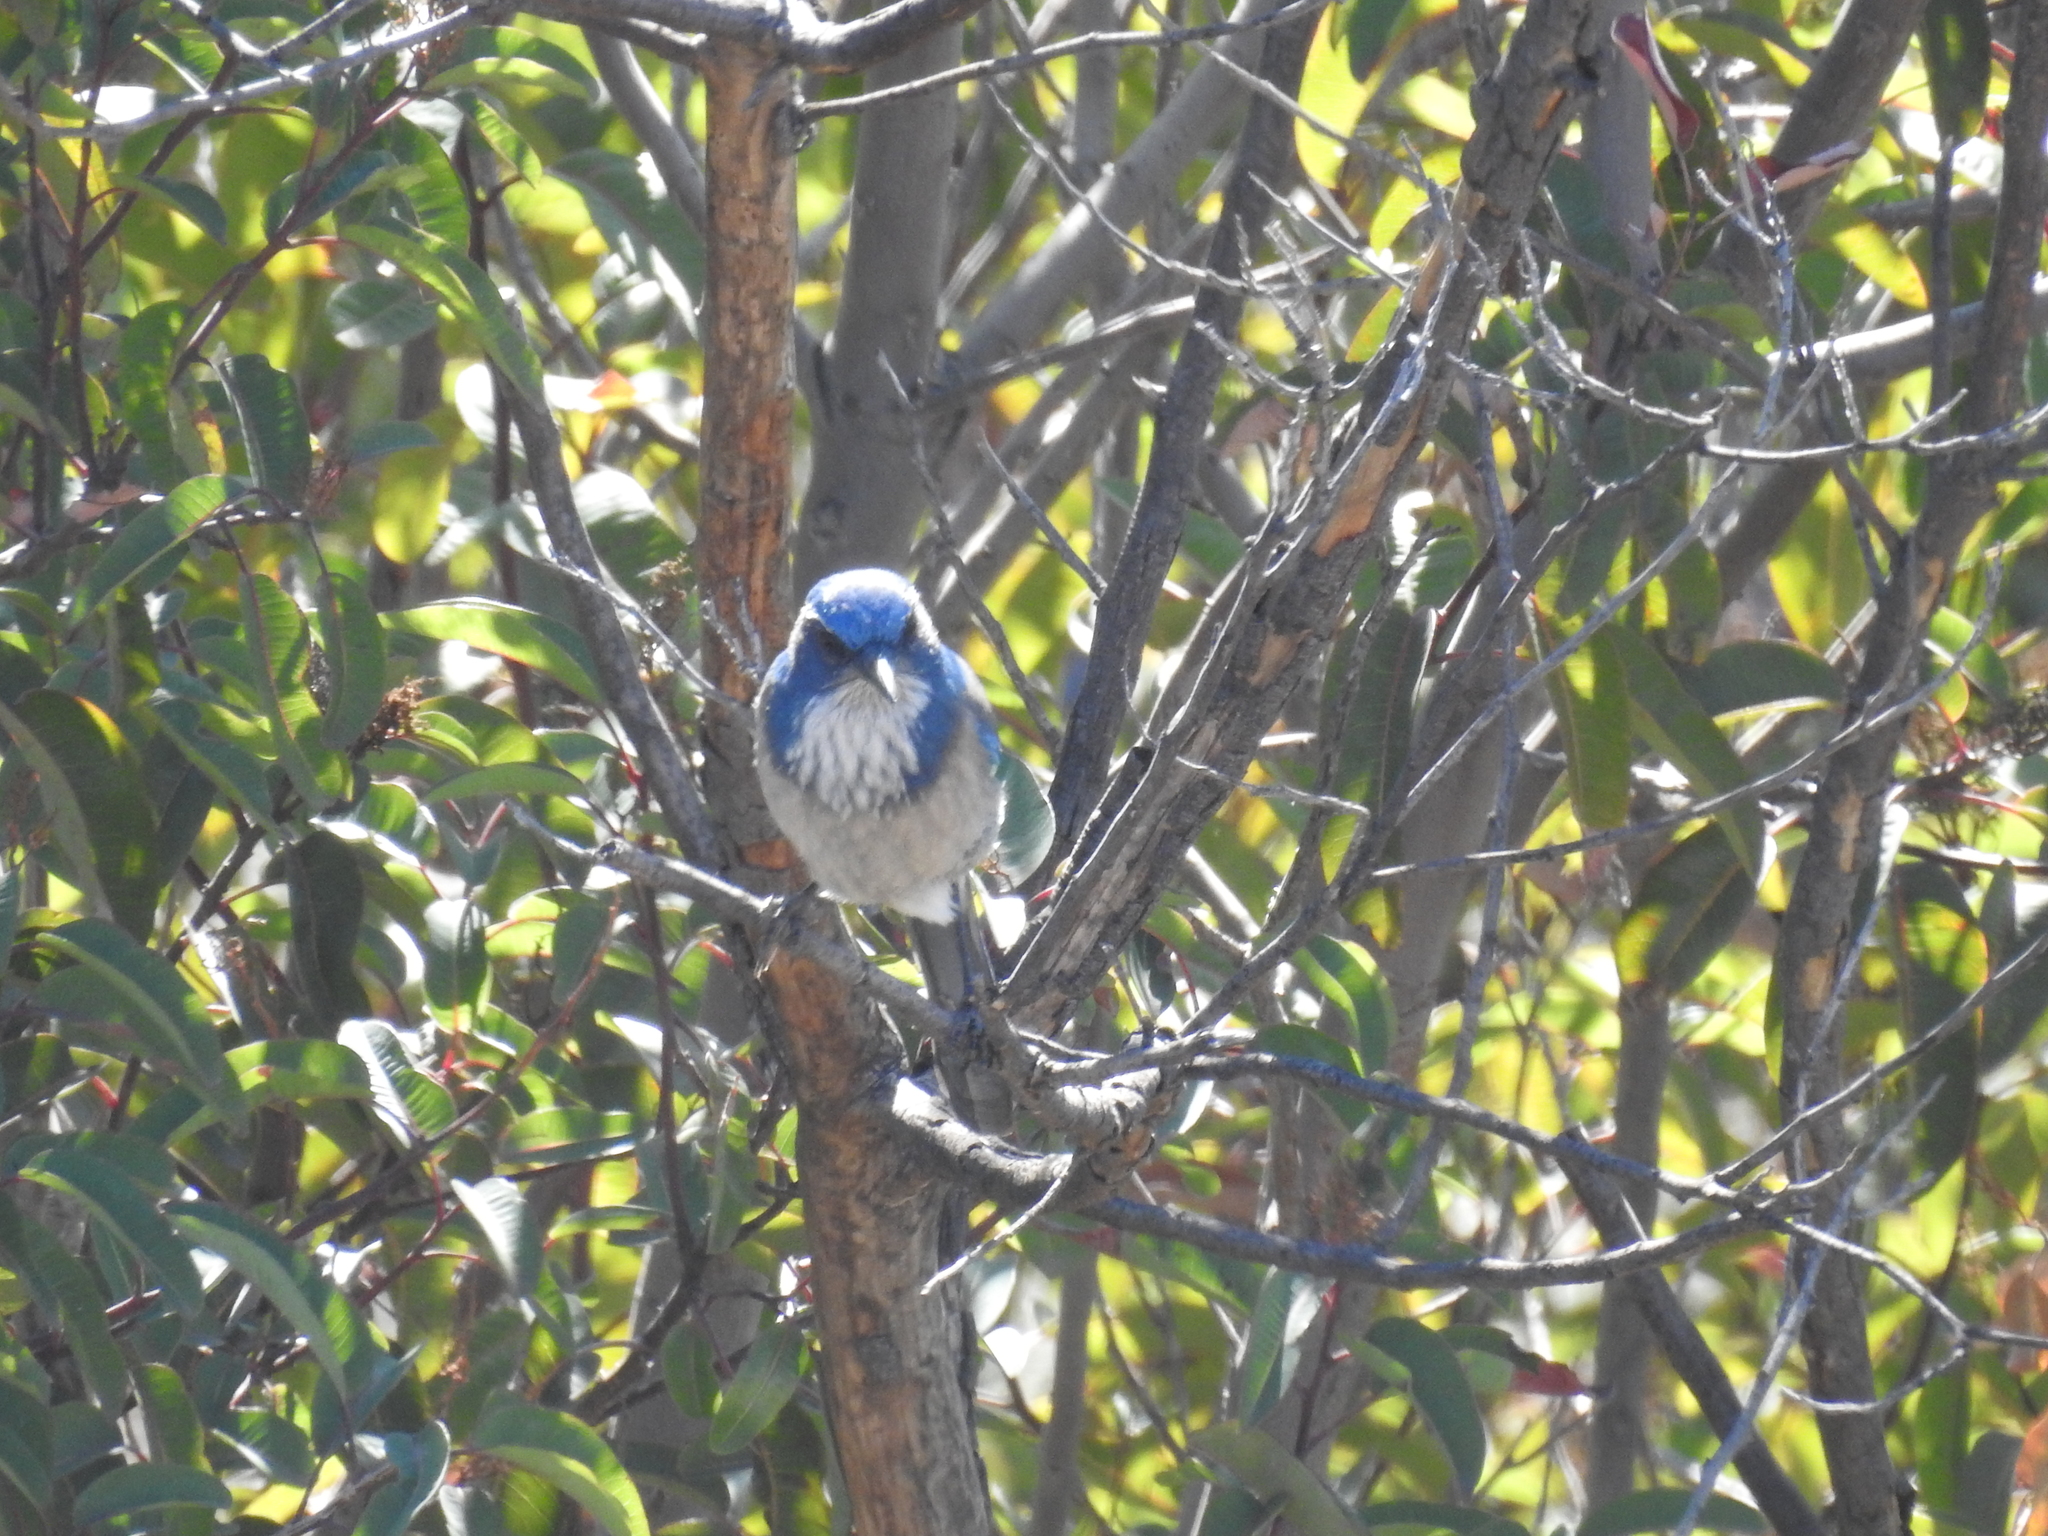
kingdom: Animalia
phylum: Chordata
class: Aves
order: Passeriformes
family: Corvidae
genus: Aphelocoma
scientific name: Aphelocoma californica
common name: California scrub-jay
